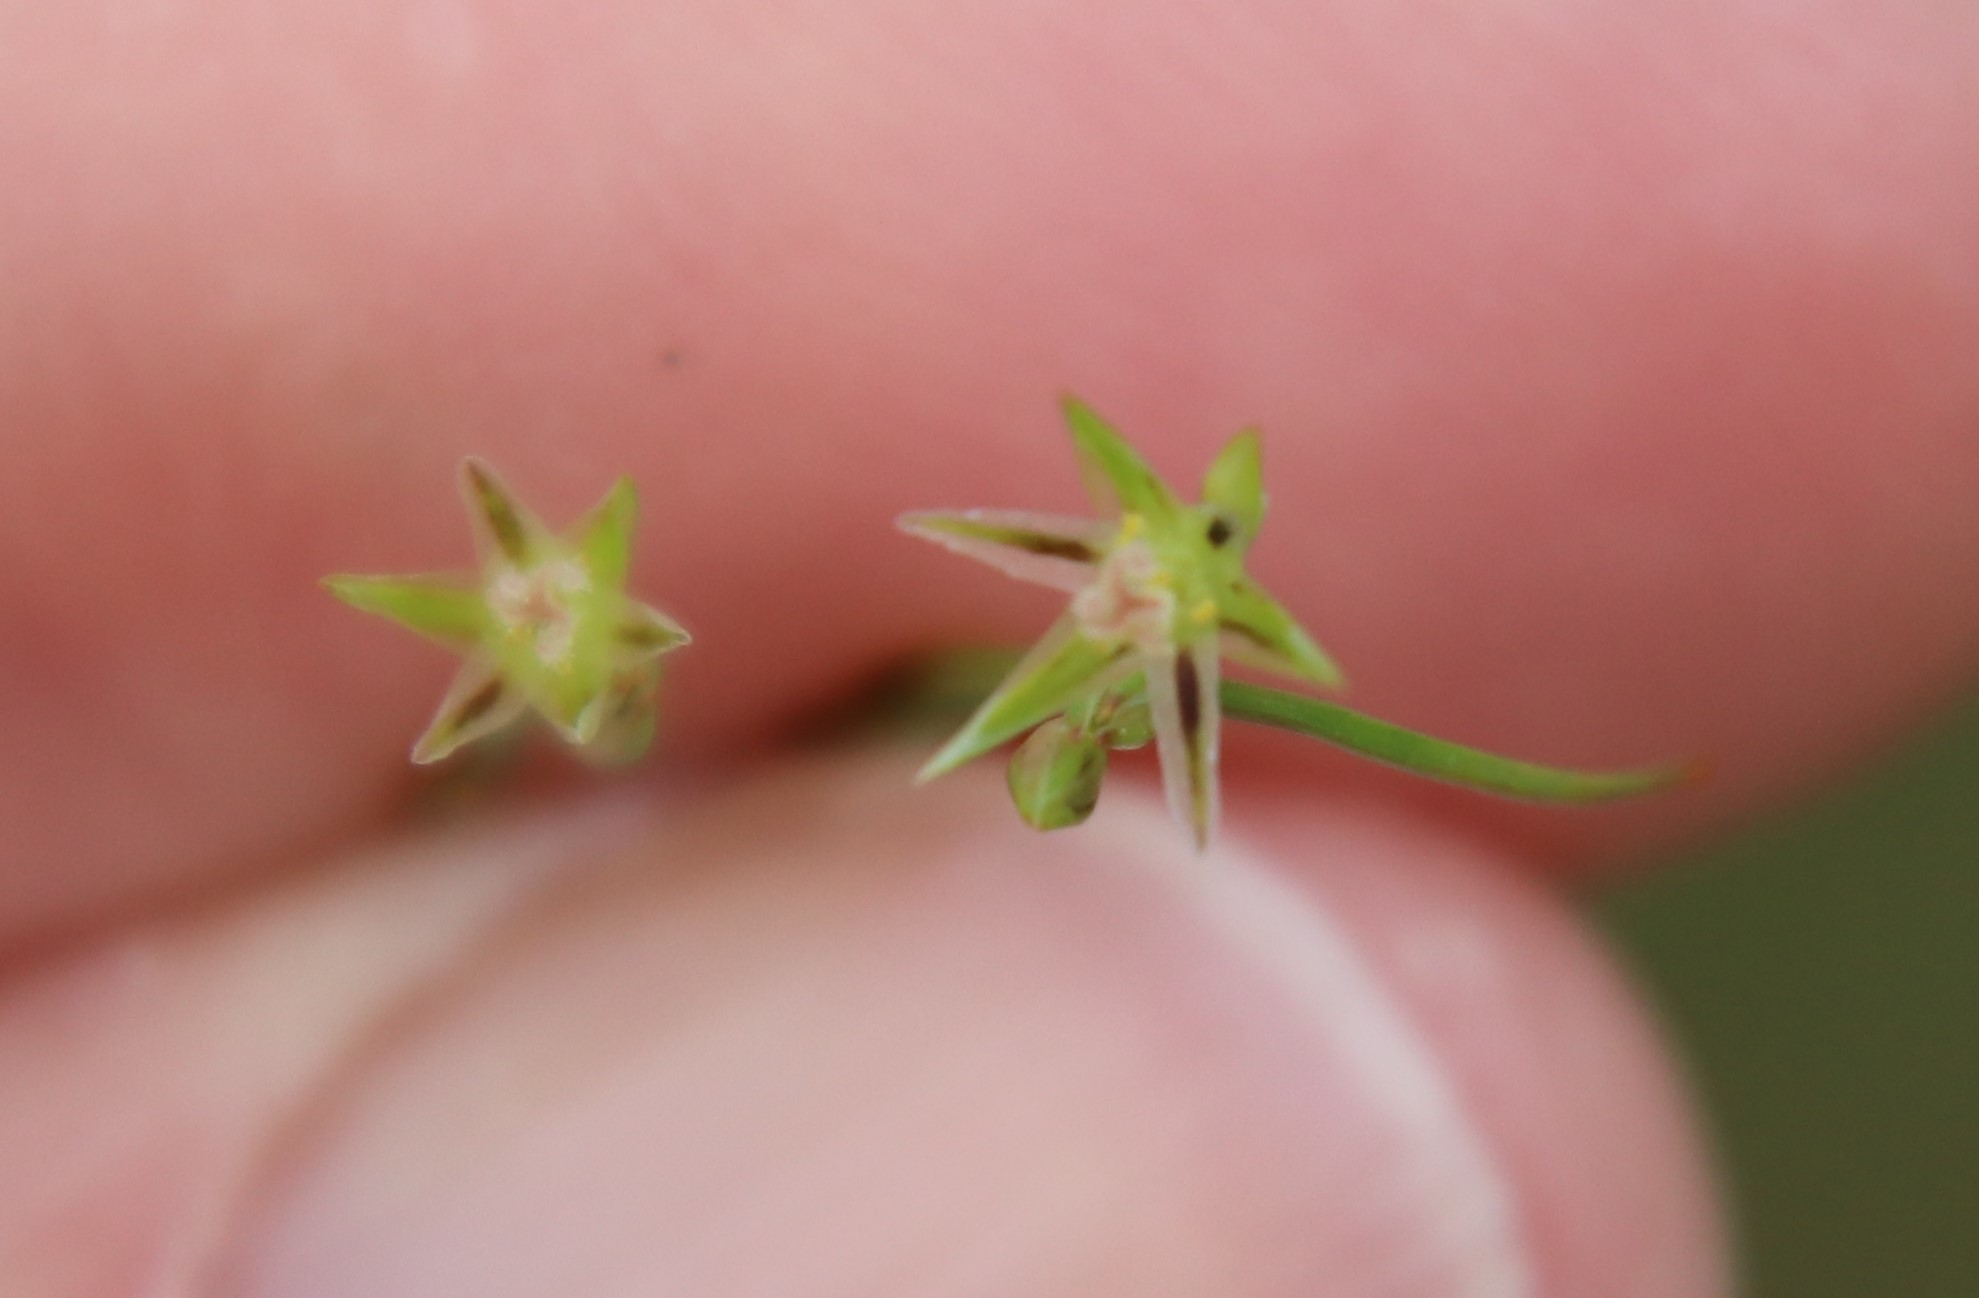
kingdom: Plantae
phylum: Tracheophyta
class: Liliopsida
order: Poales
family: Juncaceae
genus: Juncus
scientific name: Juncus bufonius
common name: Toad rush
